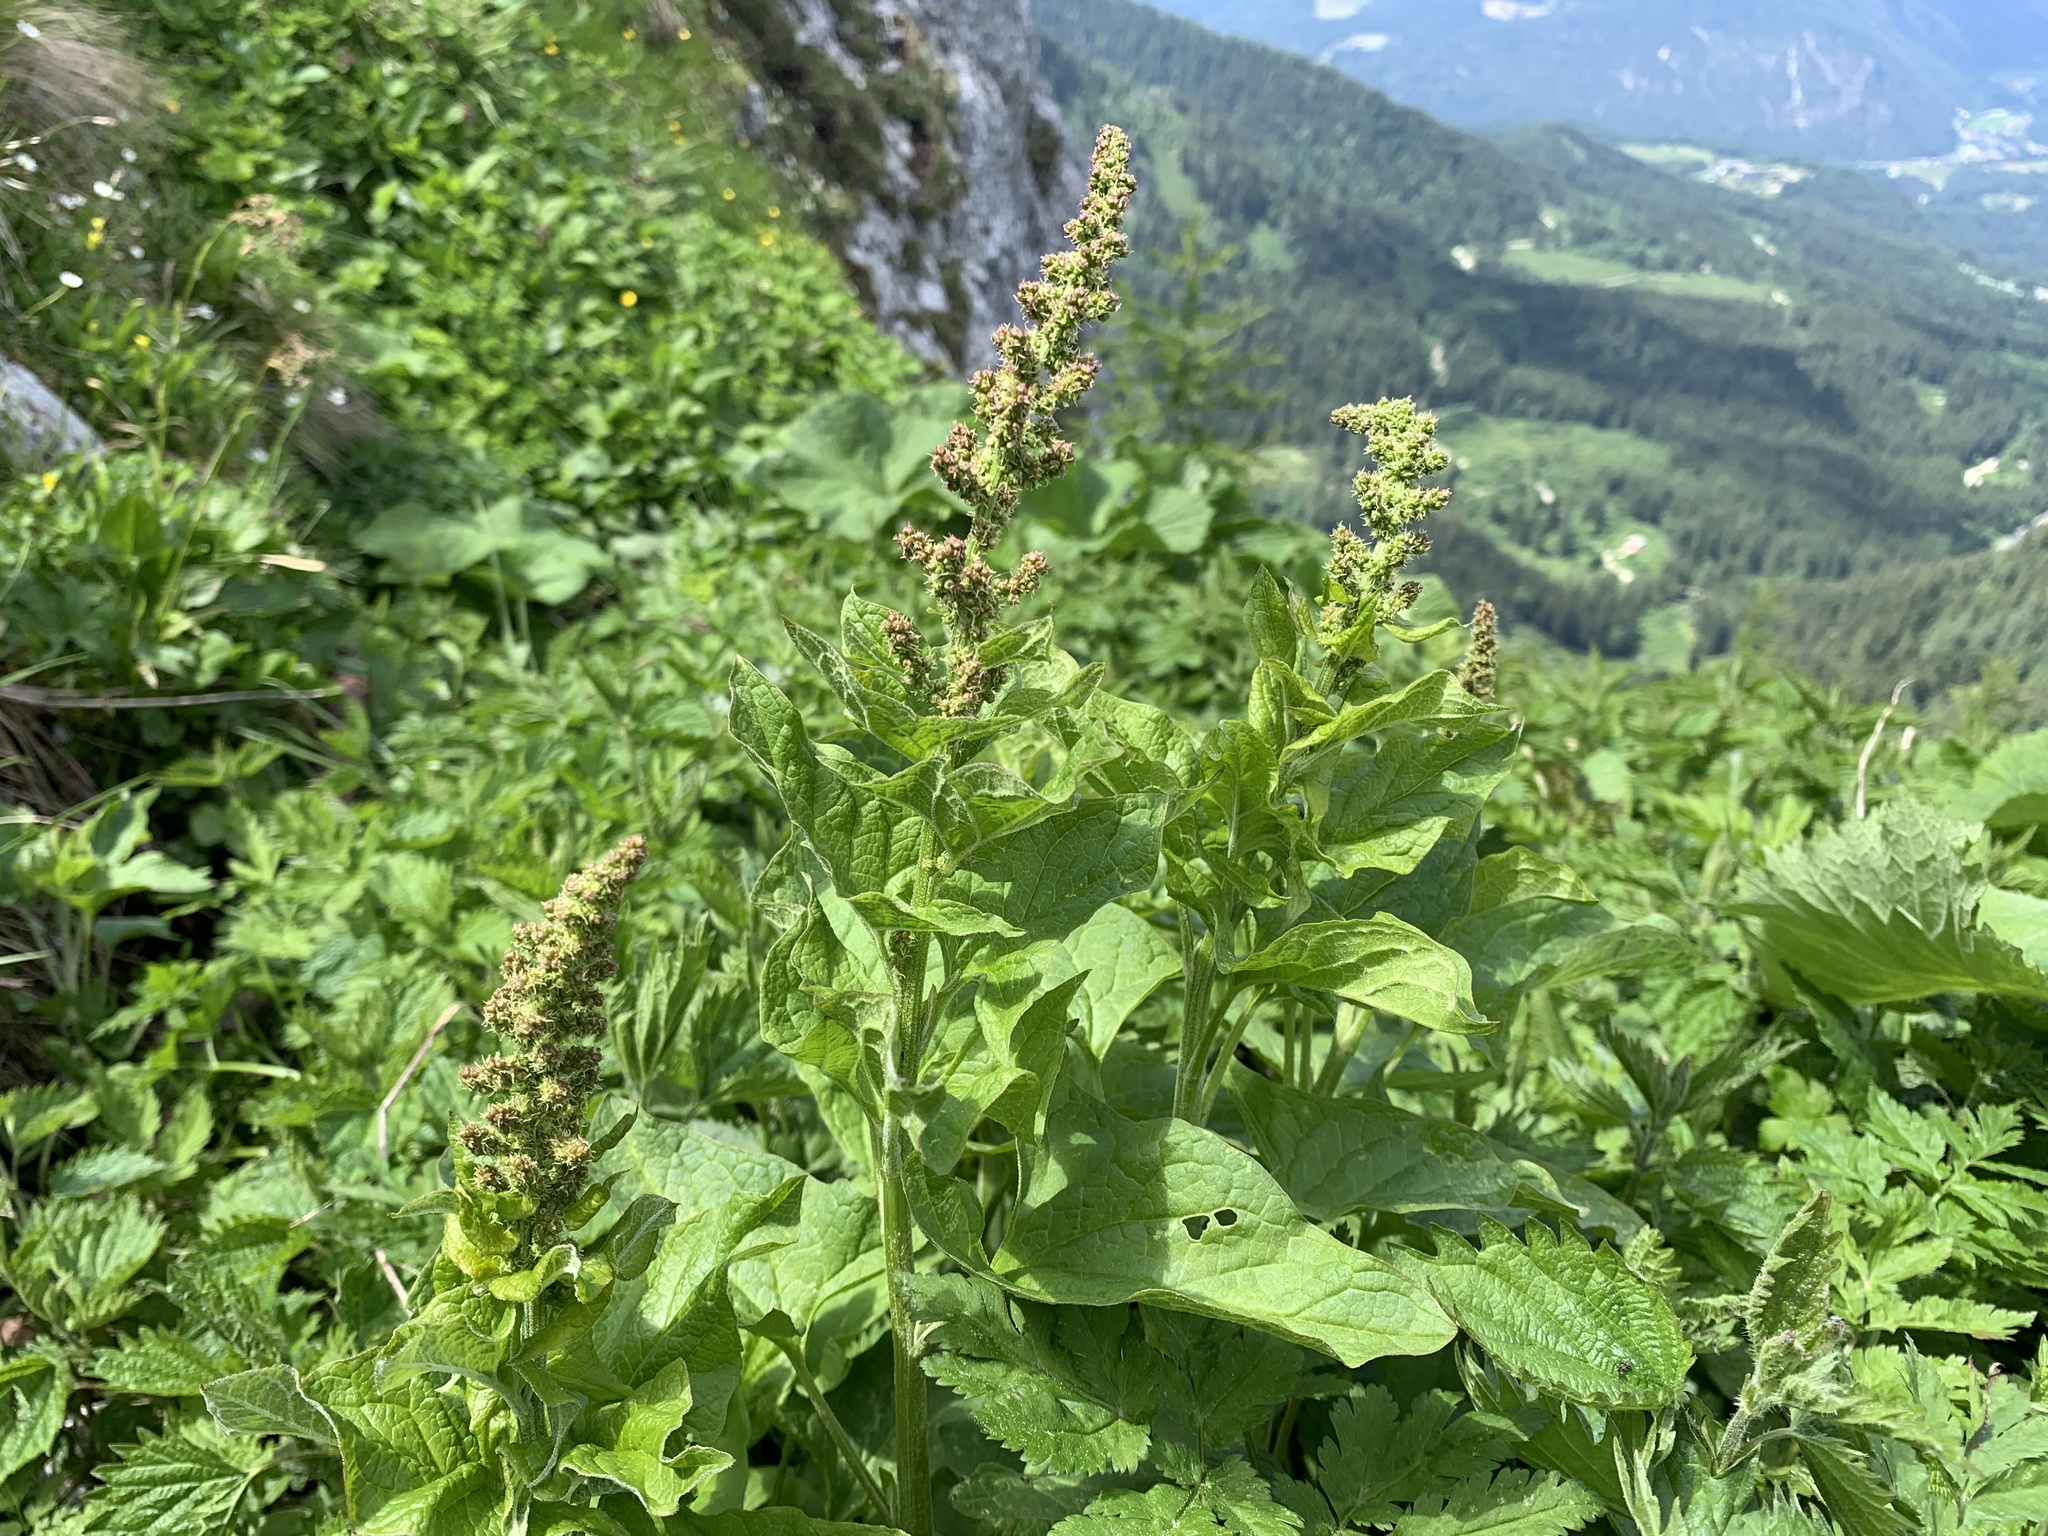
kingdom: Plantae
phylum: Tracheophyta
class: Magnoliopsida
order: Caryophyllales
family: Amaranthaceae
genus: Blitum
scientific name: Blitum bonus-henricus
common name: Good king henry
